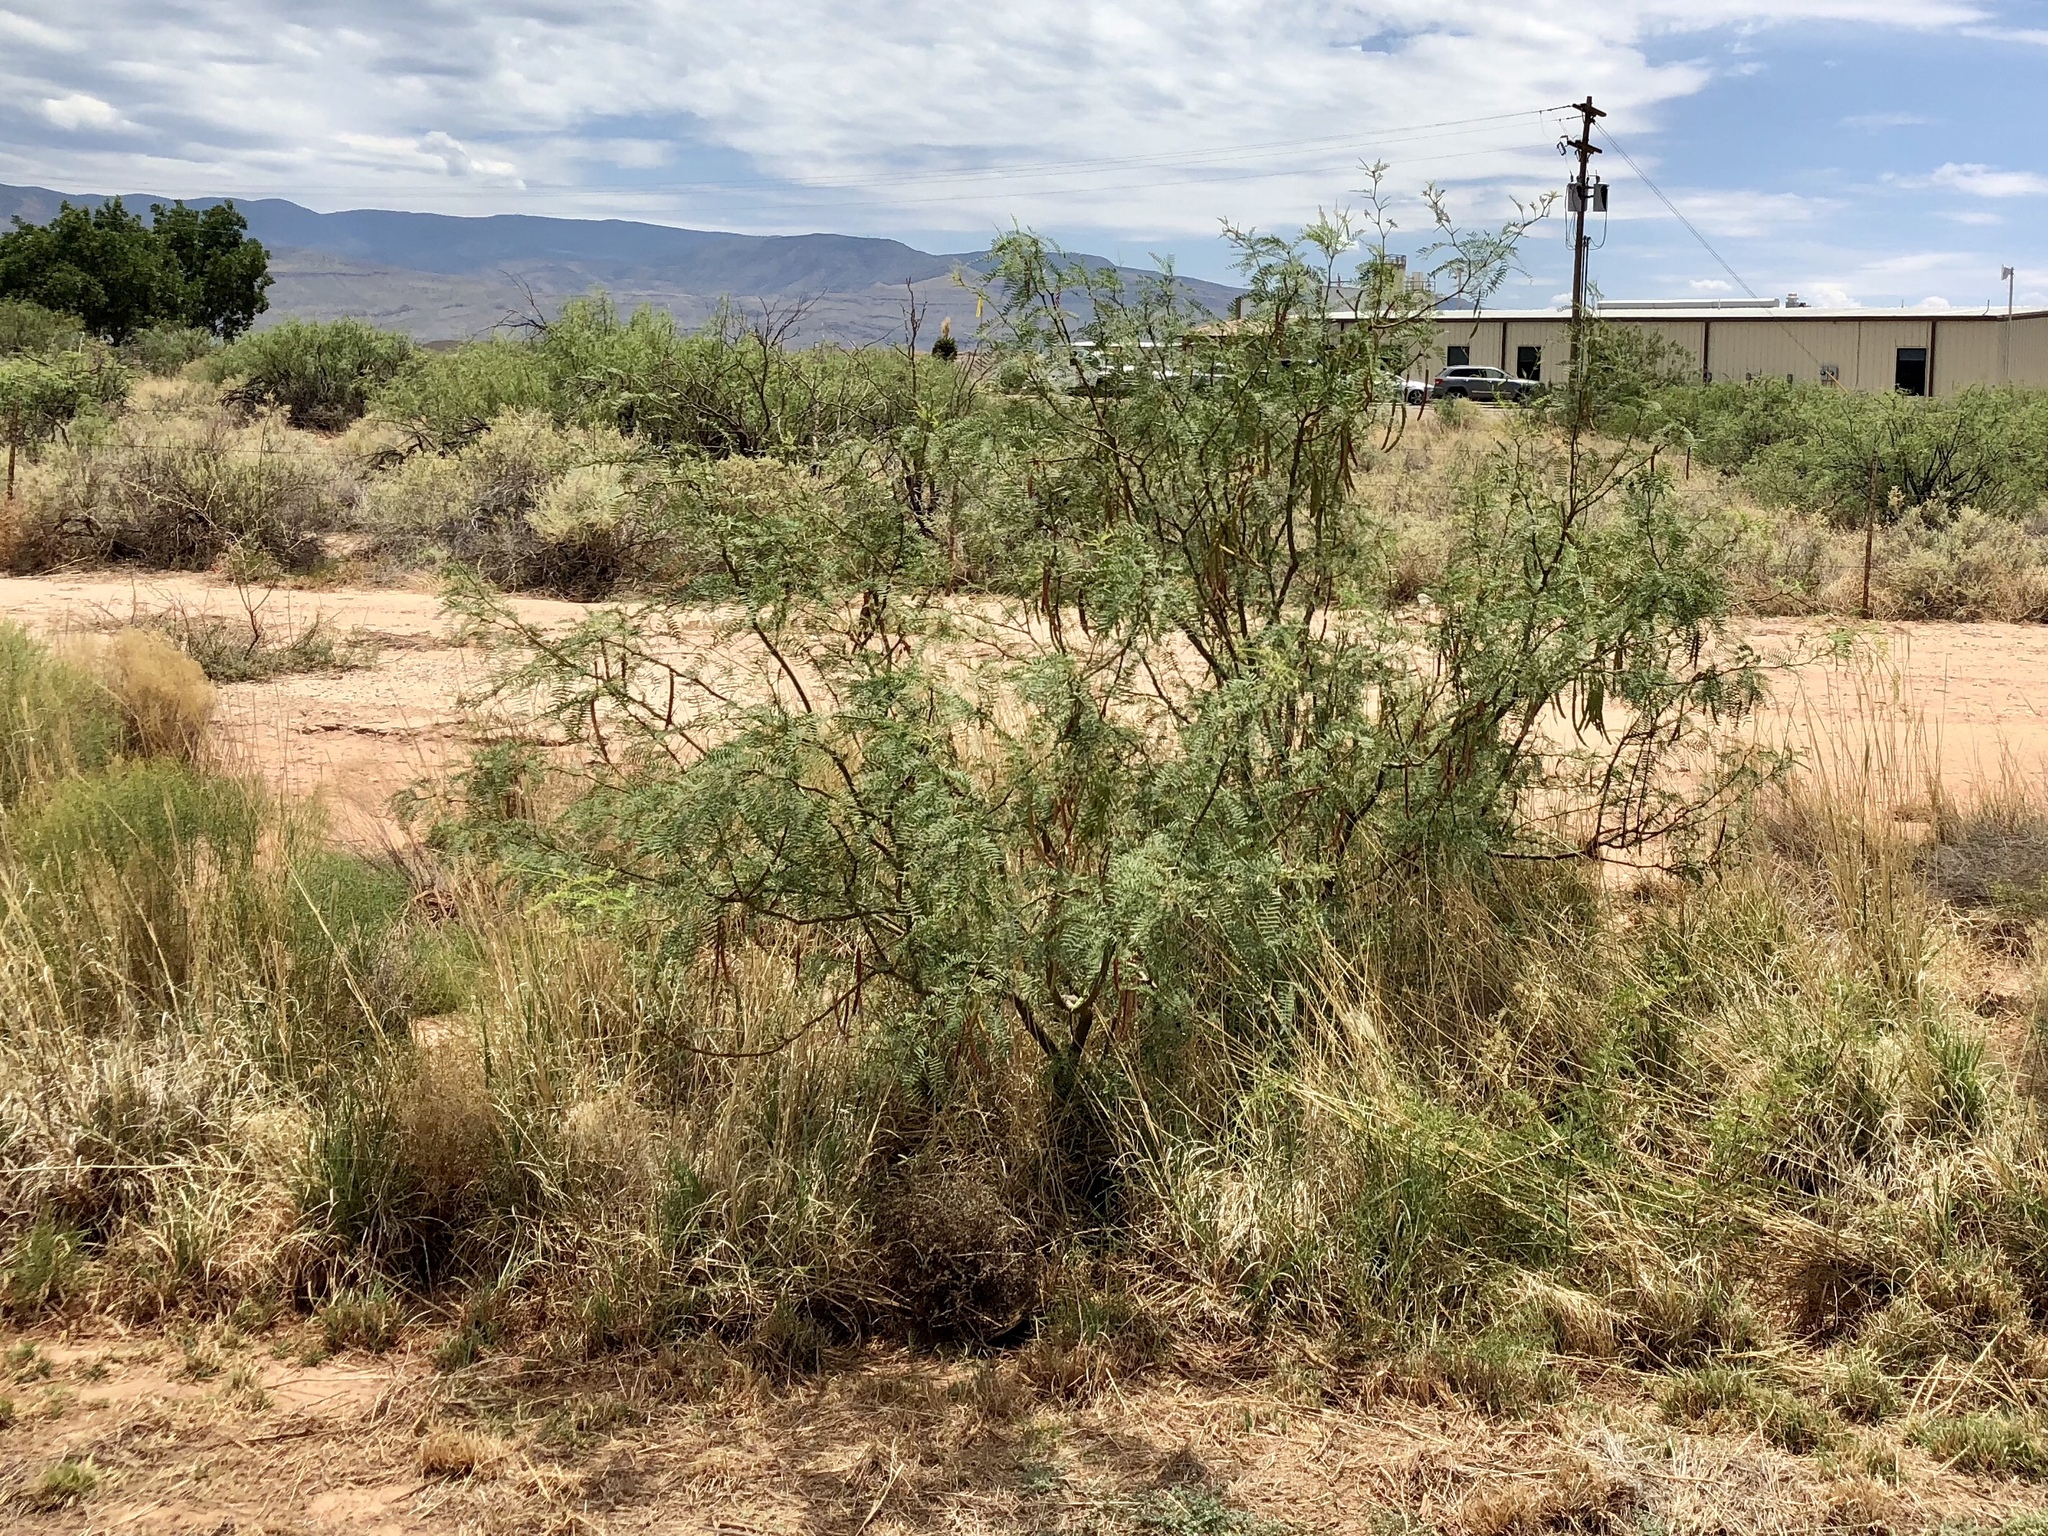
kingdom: Plantae
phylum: Tracheophyta
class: Magnoliopsida
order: Fabales
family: Fabaceae
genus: Prosopis
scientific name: Prosopis glandulosa
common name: Honey mesquite
